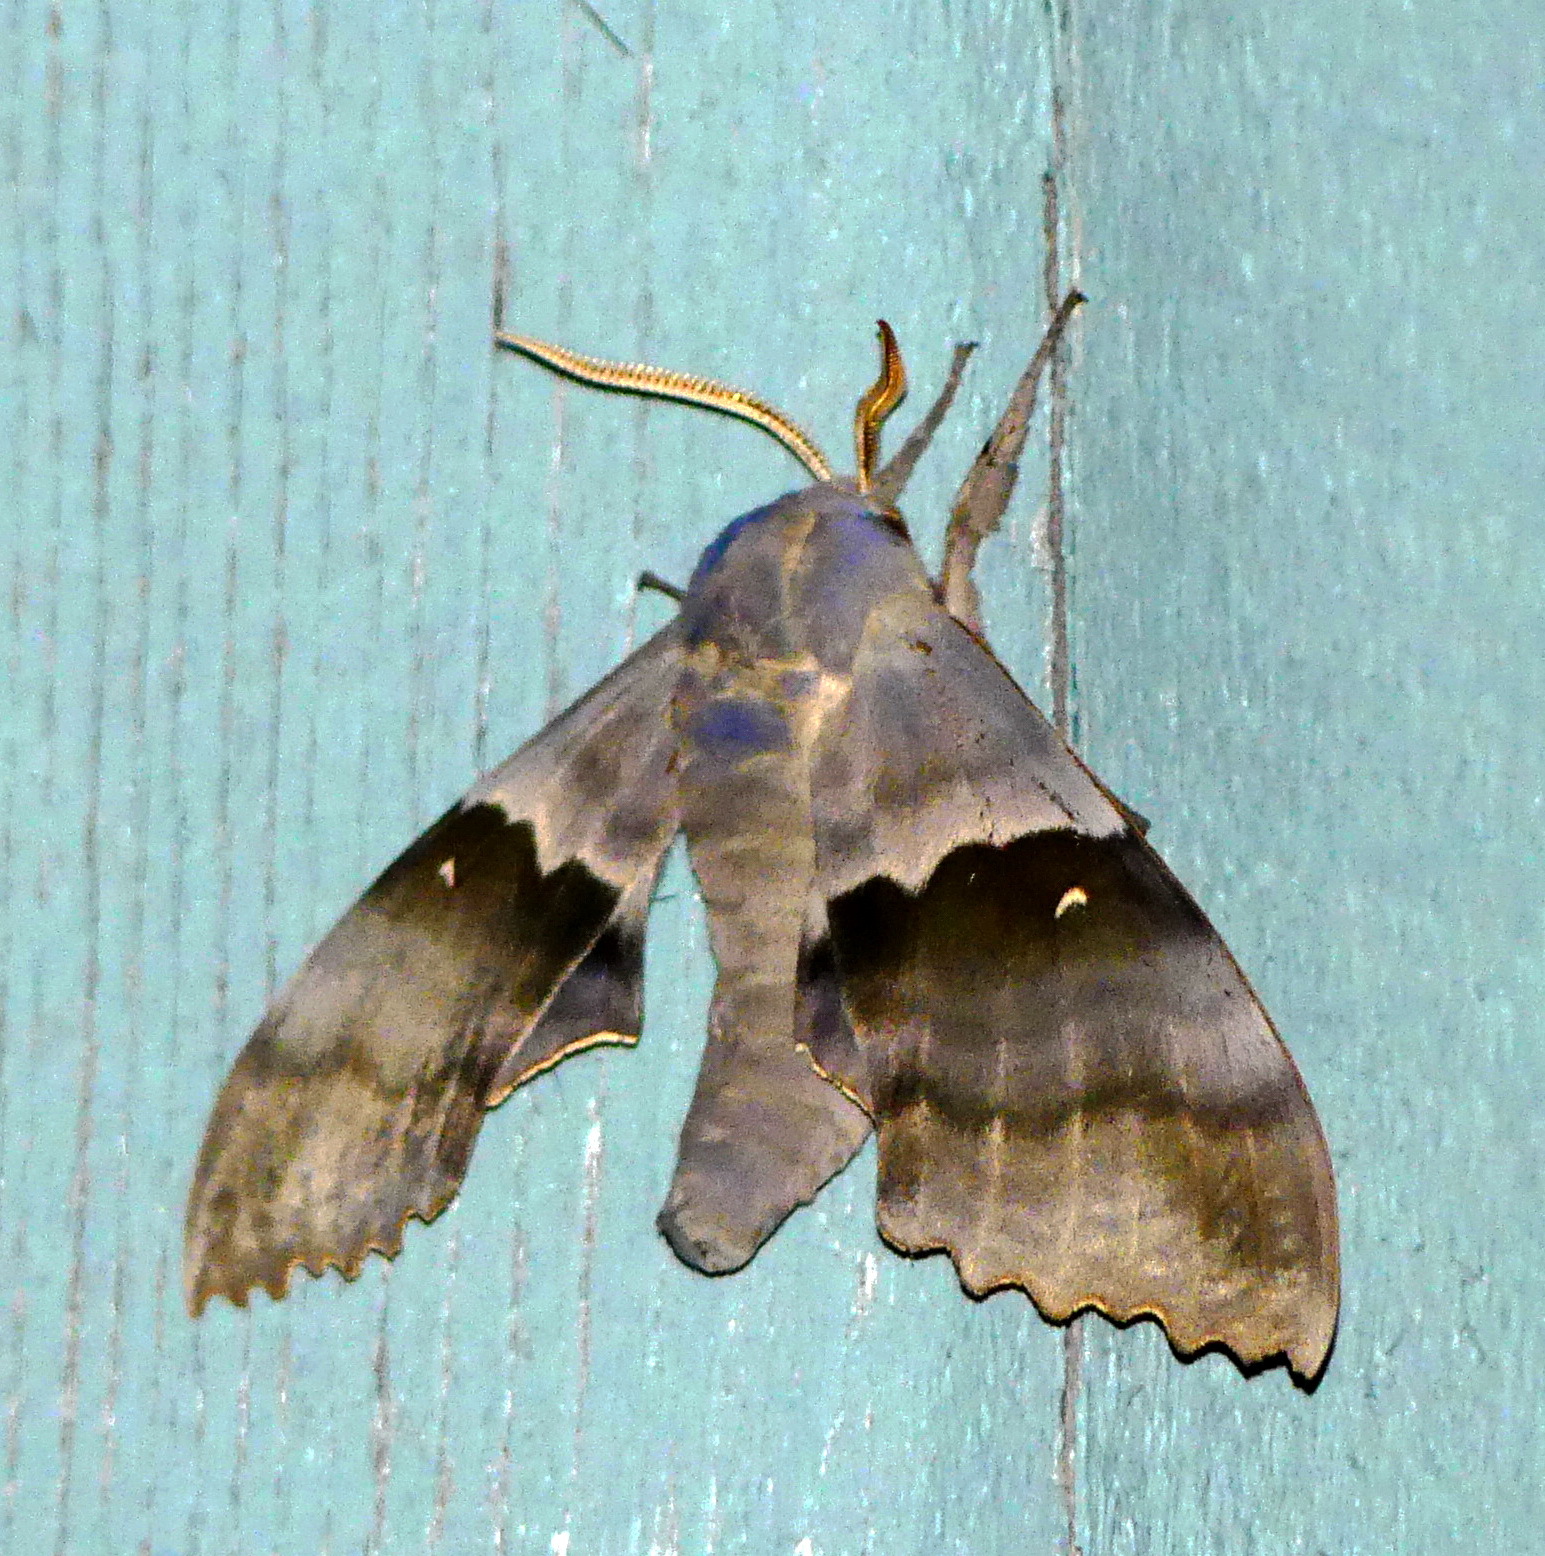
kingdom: Animalia
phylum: Arthropoda
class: Insecta
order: Lepidoptera
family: Sphingidae
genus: Pachysphinx
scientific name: Pachysphinx modesta
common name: Big poplar sphinx
